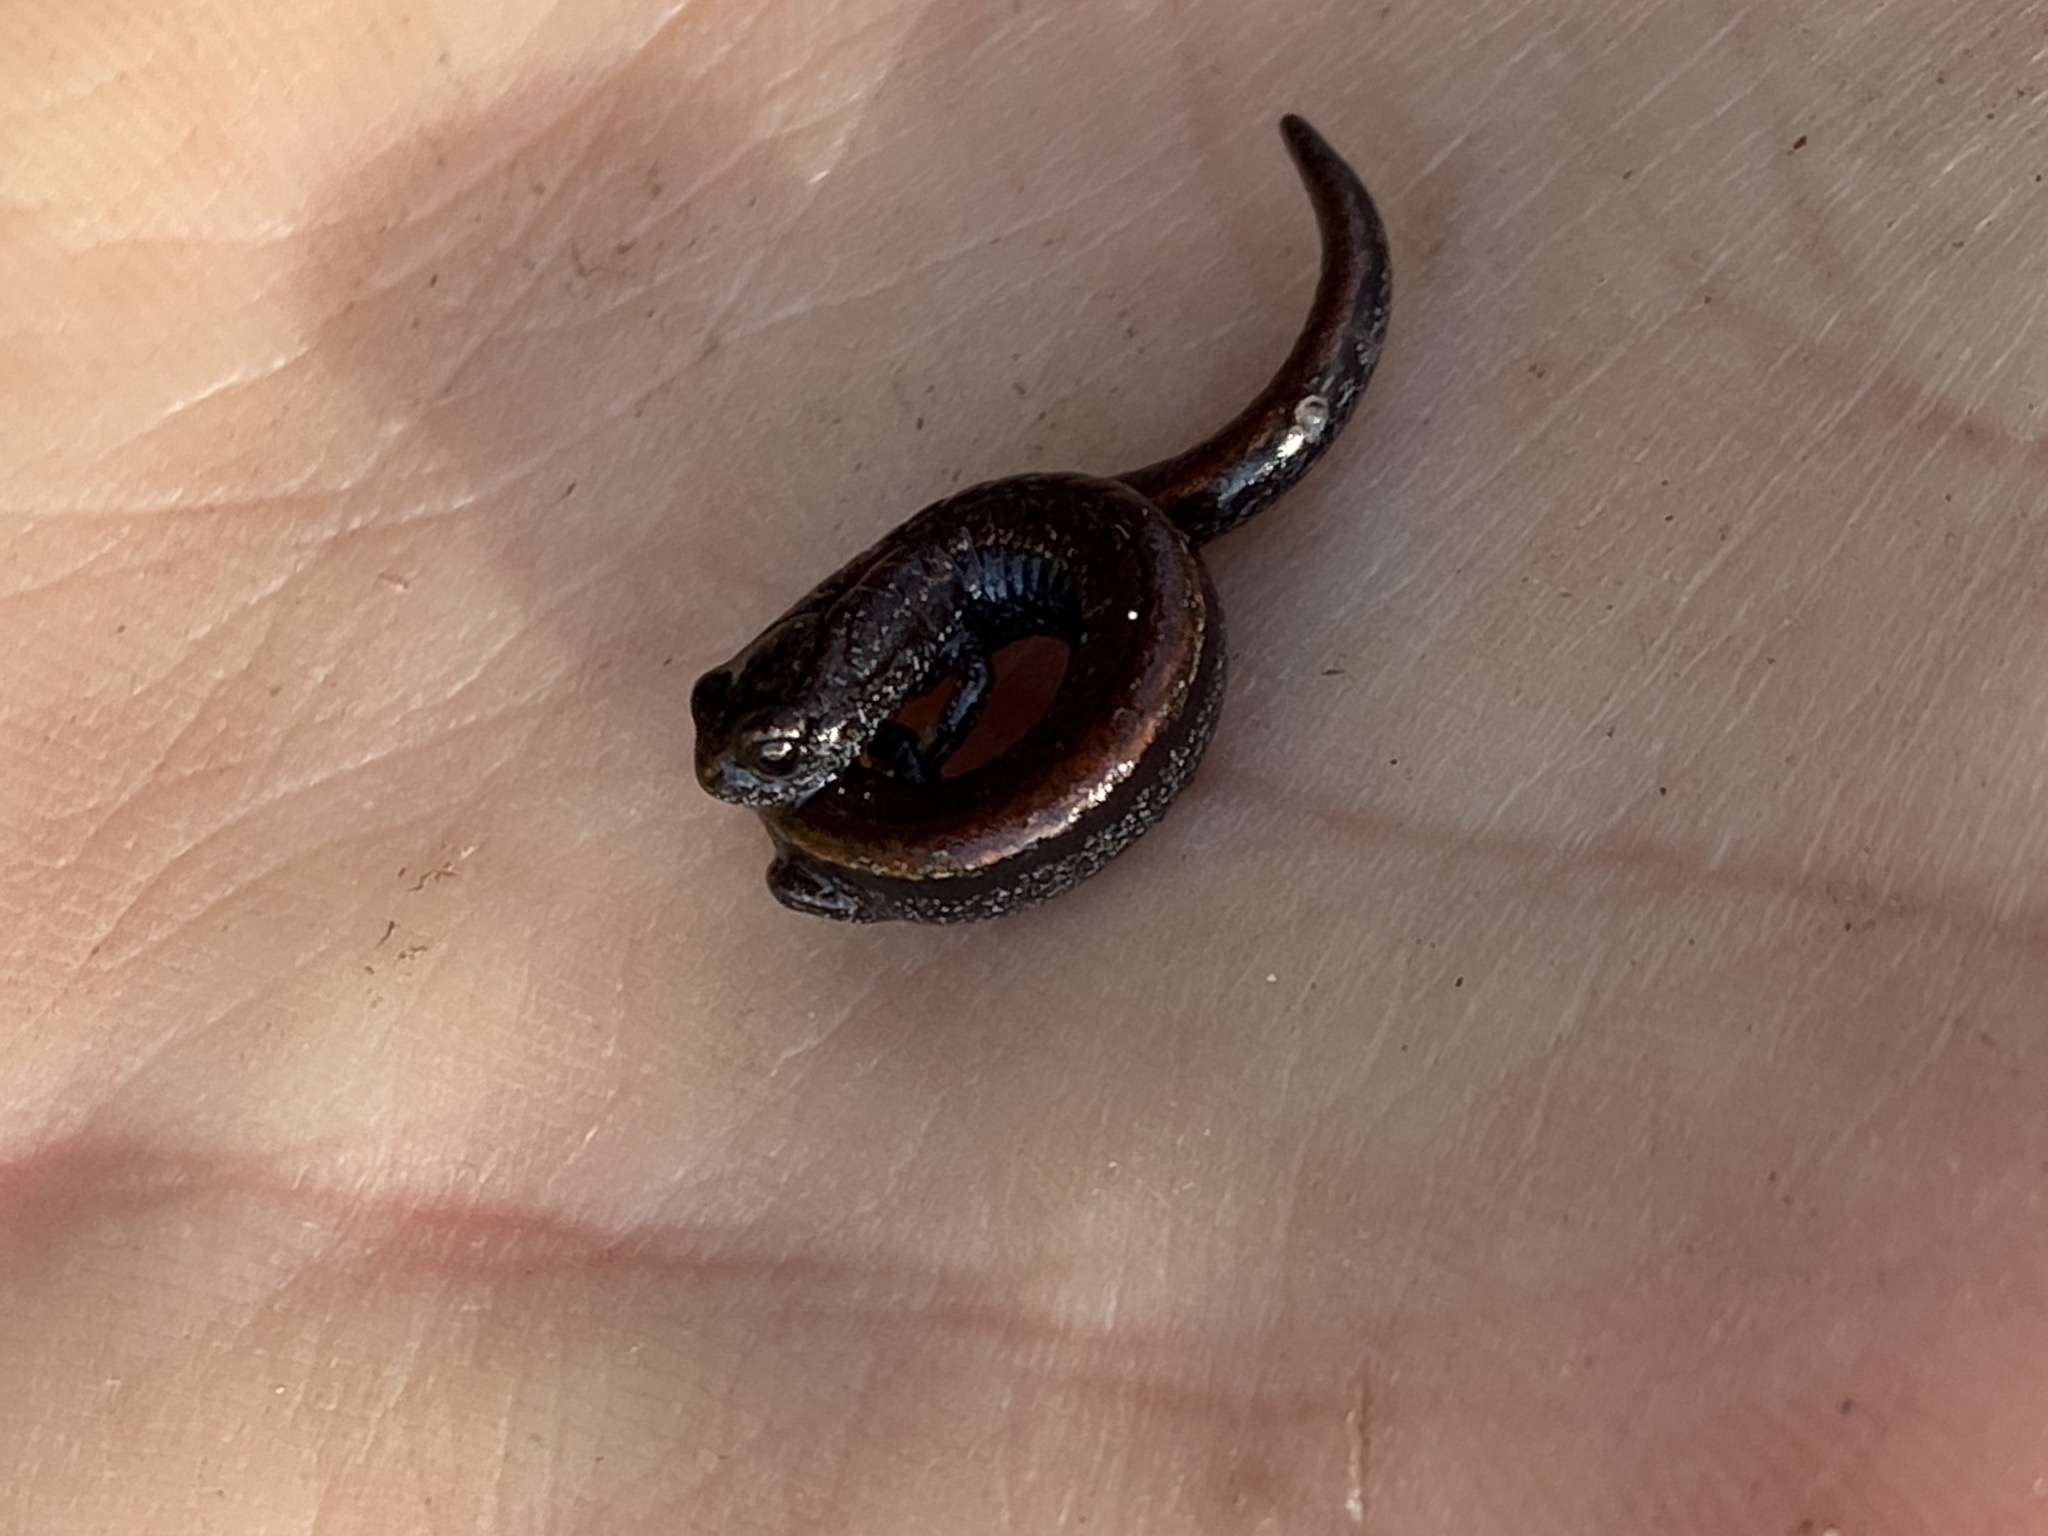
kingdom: Animalia
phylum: Chordata
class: Amphibia
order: Caudata
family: Plethodontidae
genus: Batrachoseps
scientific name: Batrachoseps attenuatus
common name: California slender salamander
